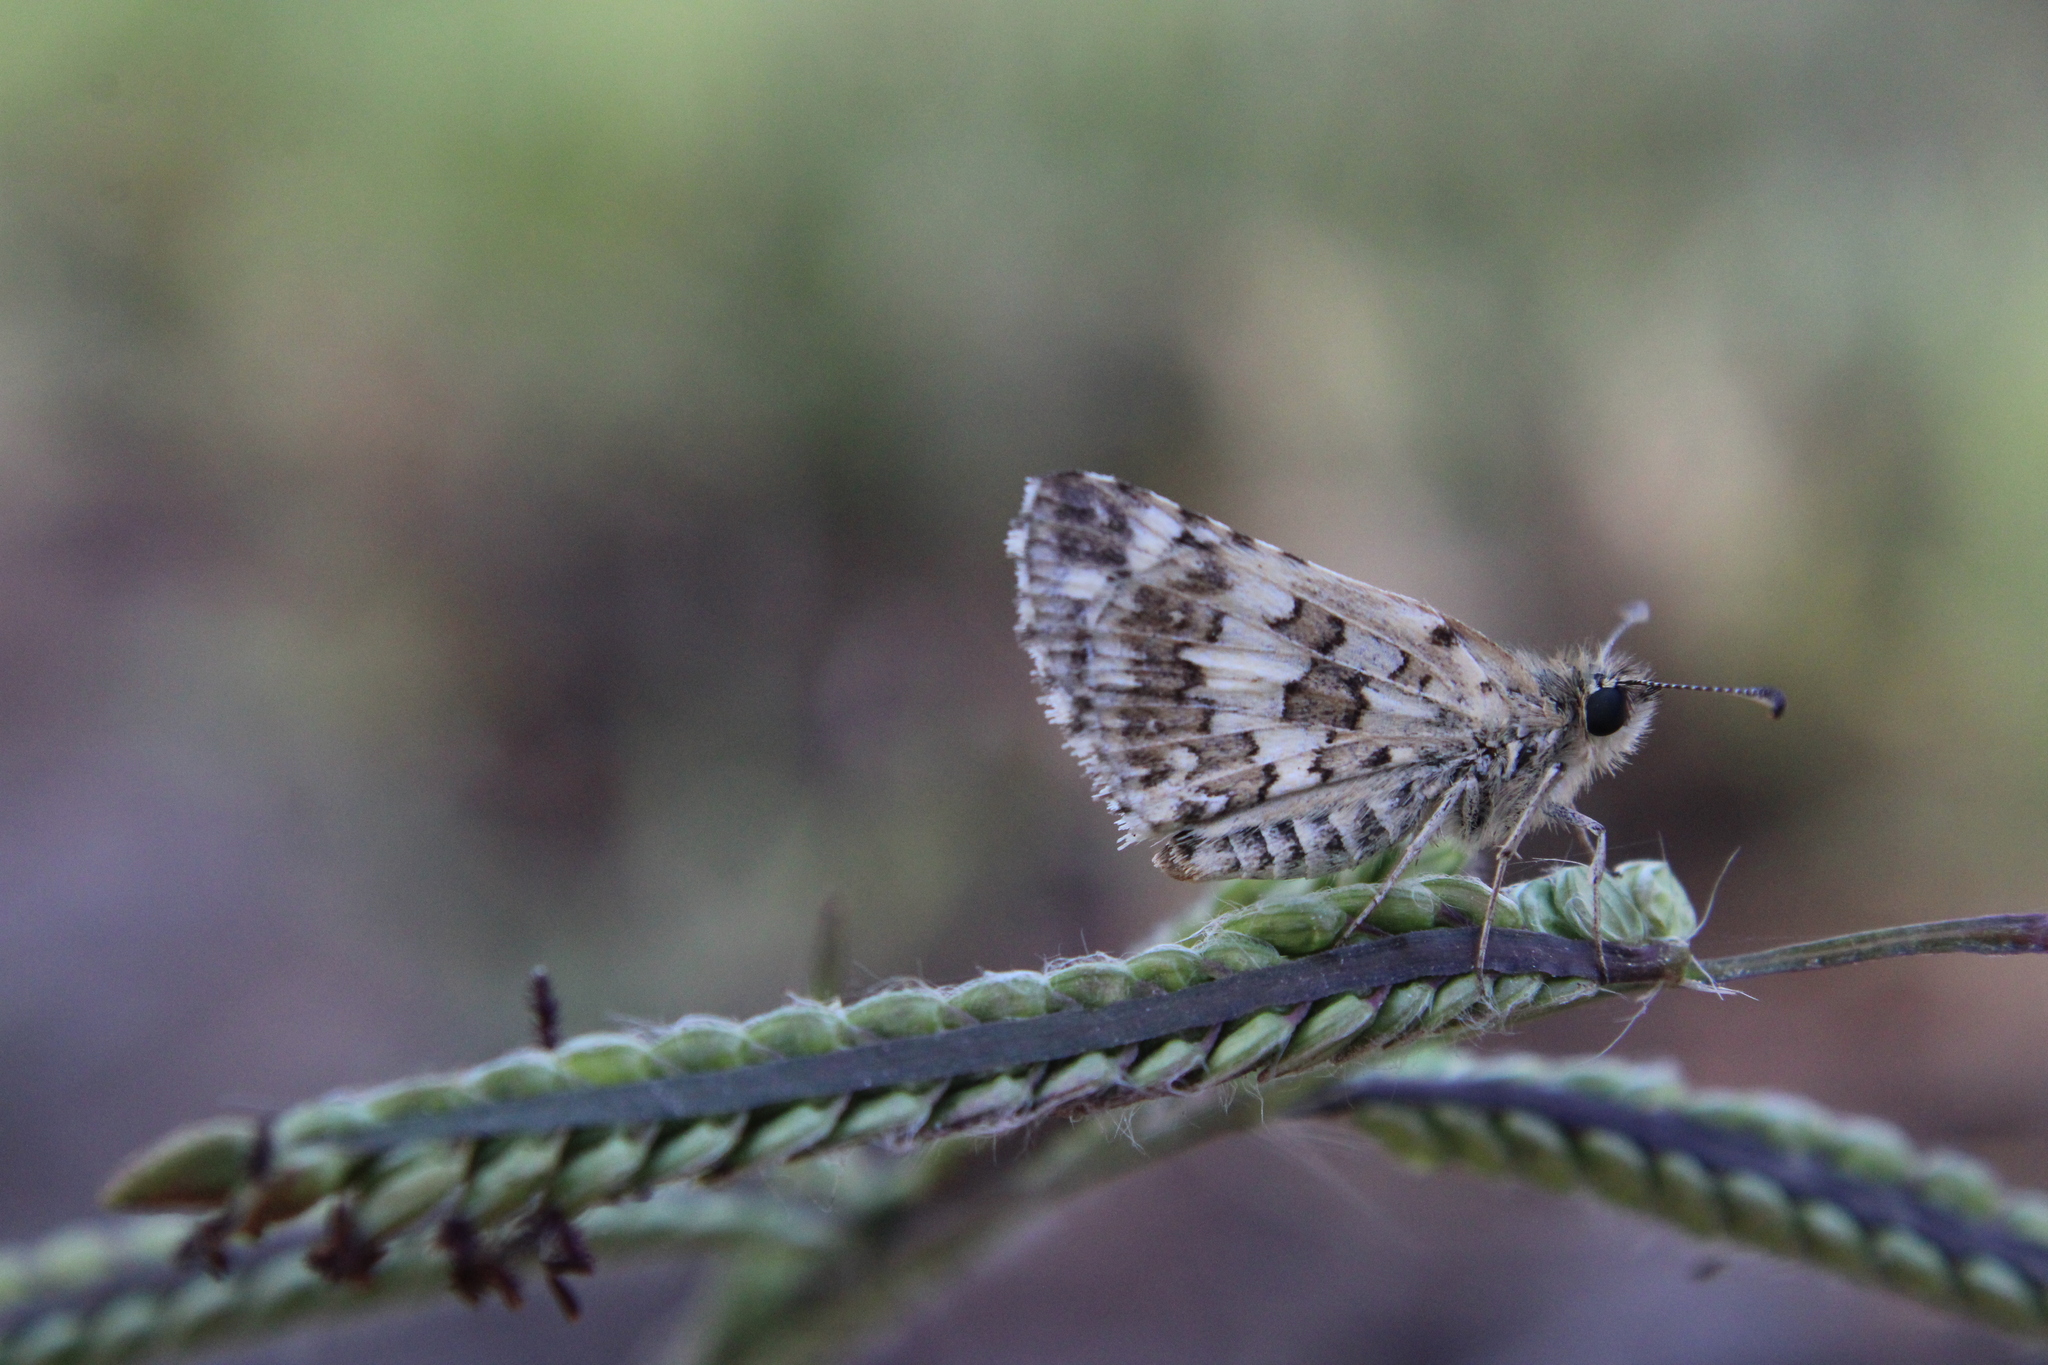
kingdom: Animalia
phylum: Arthropoda
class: Insecta
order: Lepidoptera
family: Hesperiidae
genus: Burnsius
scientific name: Burnsius orcynoides
